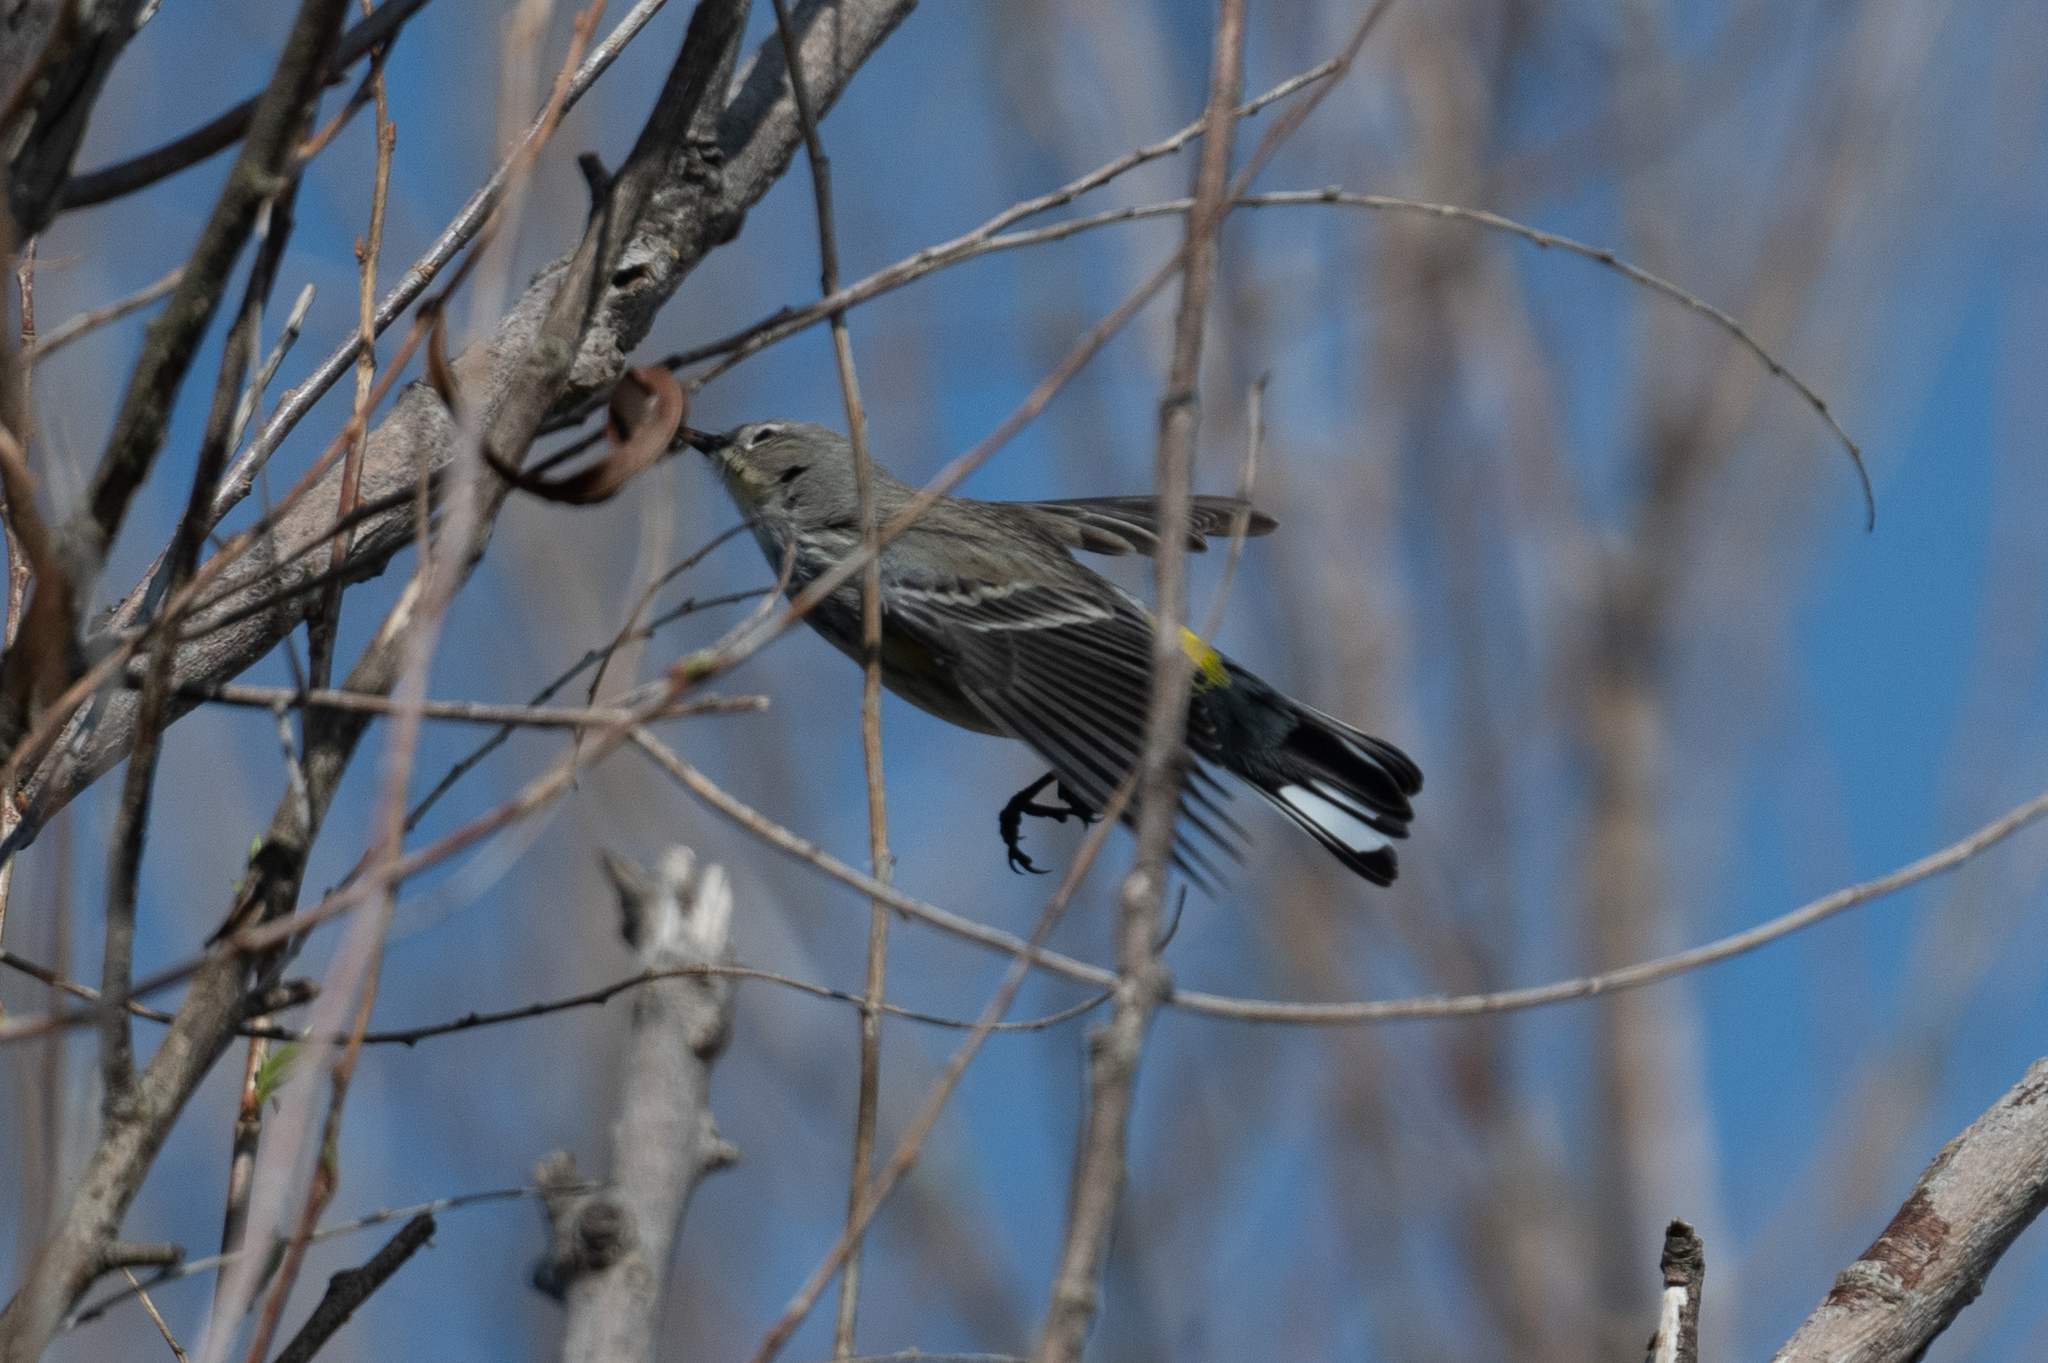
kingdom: Animalia
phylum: Chordata
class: Aves
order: Passeriformes
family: Parulidae
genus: Setophaga
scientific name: Setophaga coronata
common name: Myrtle warbler
